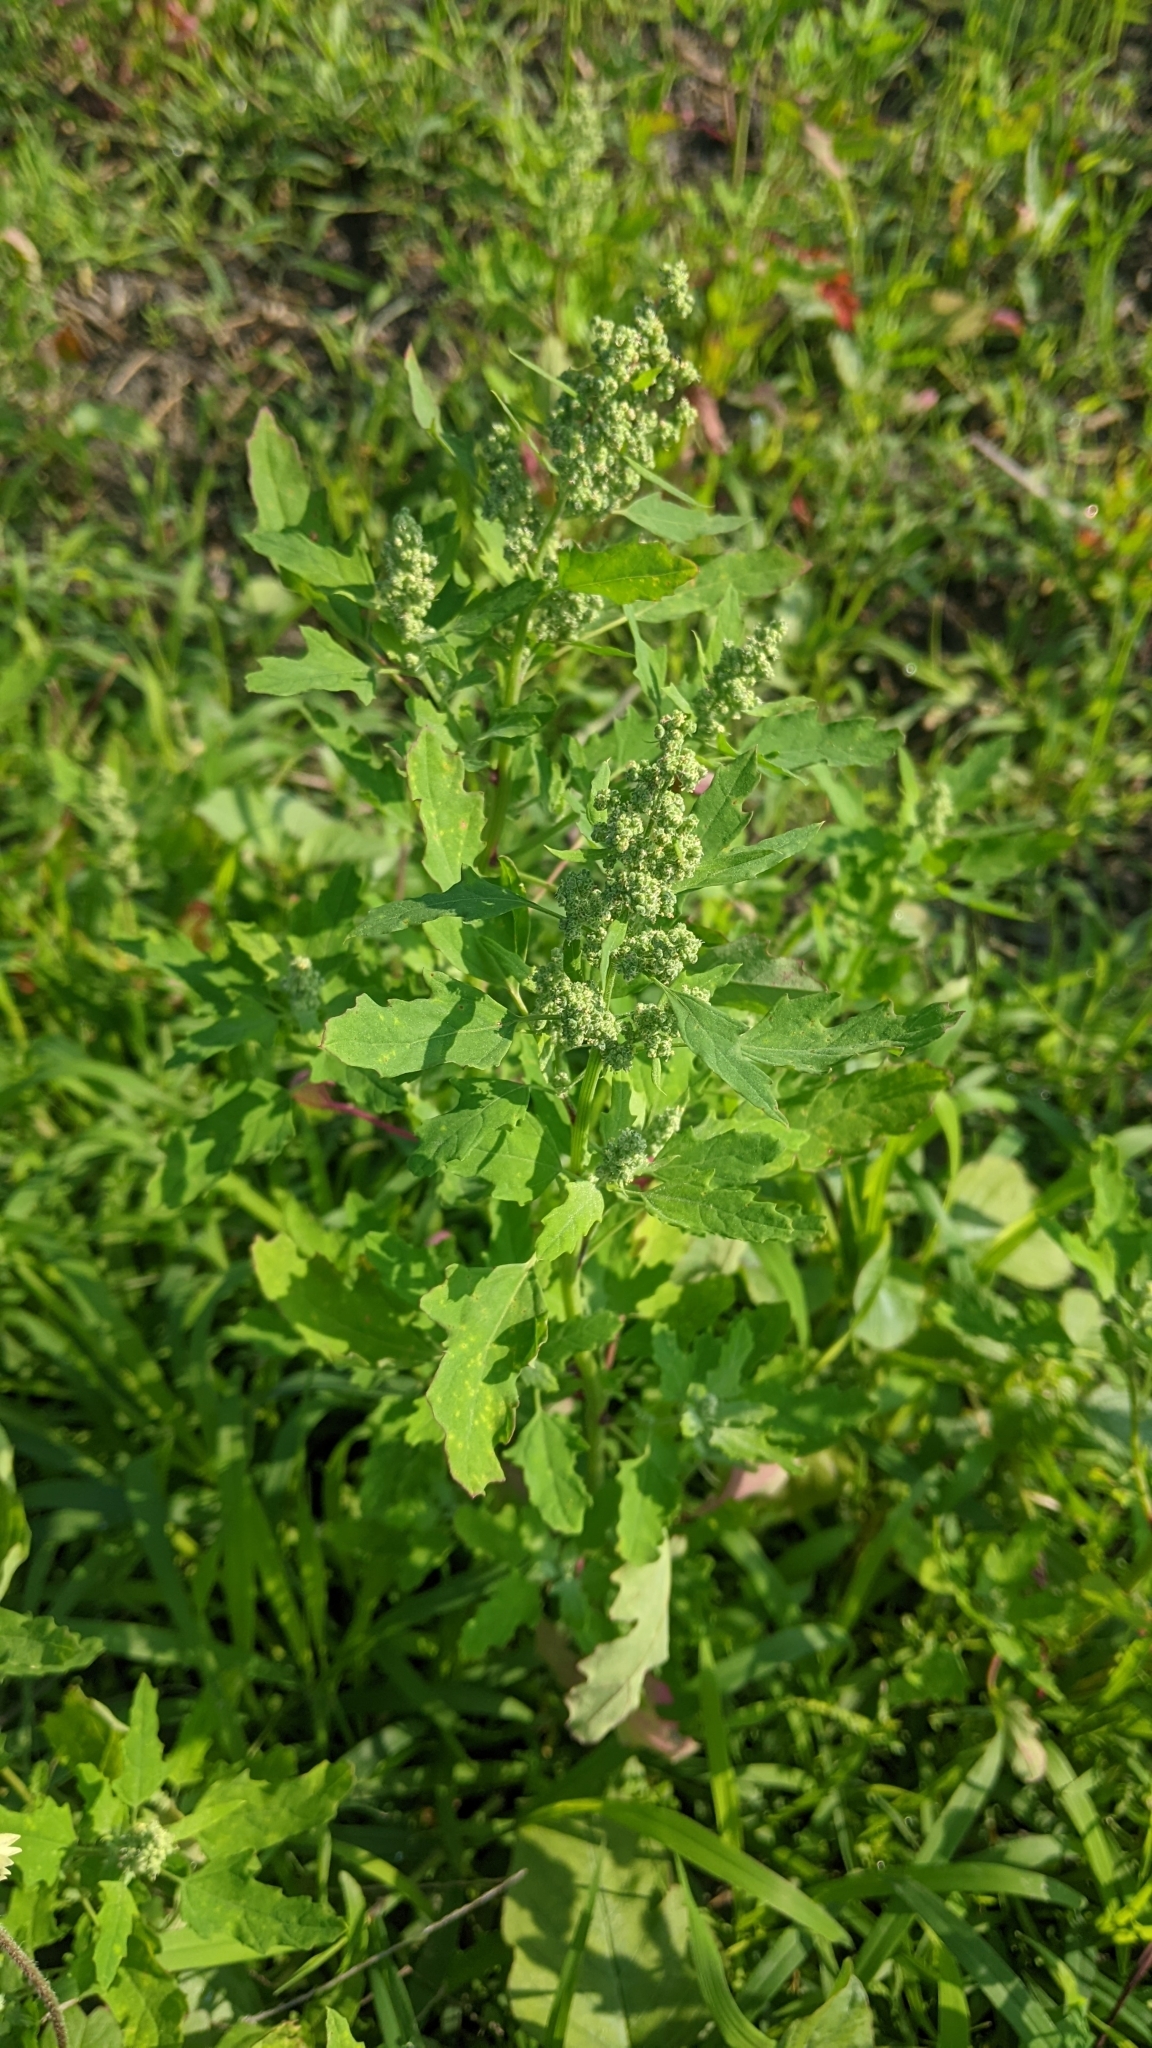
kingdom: Plantae
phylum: Tracheophyta
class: Magnoliopsida
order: Caryophyllales
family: Amaranthaceae
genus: Chenopodium
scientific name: Chenopodium ficifolium
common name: Fig-leaved goosefoot
